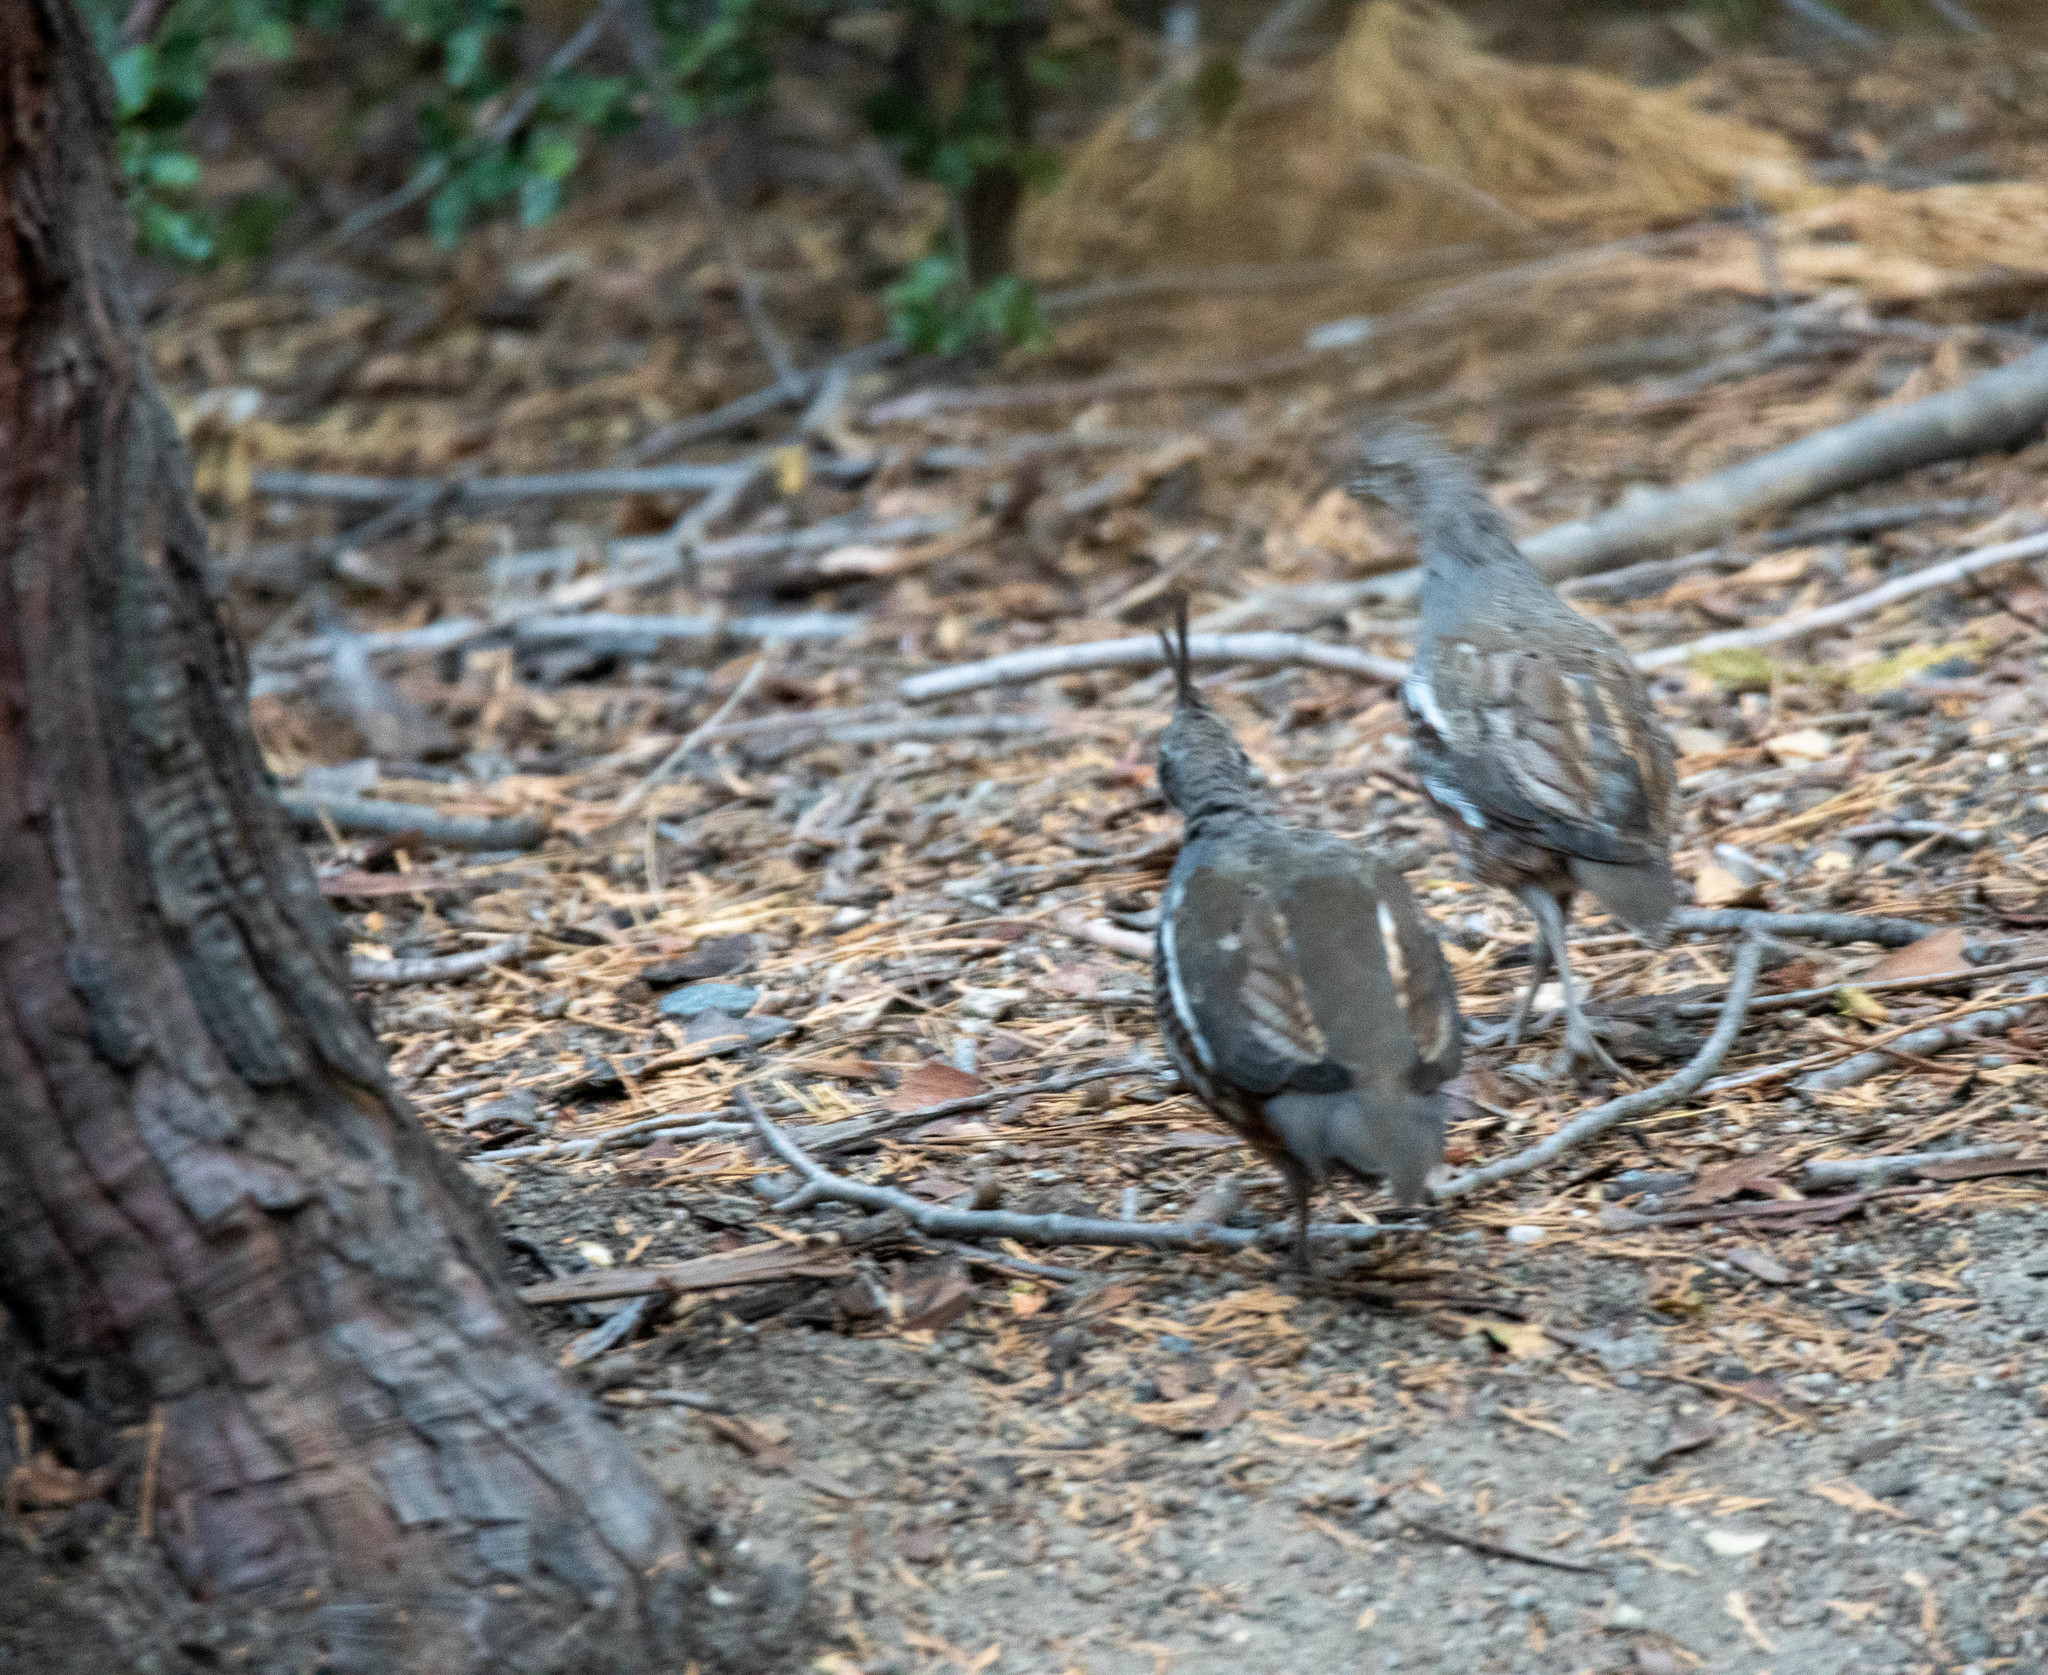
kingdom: Animalia
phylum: Chordata
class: Aves
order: Galliformes
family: Odontophoridae
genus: Oreortyx
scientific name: Oreortyx pictus
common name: Mountain quail
